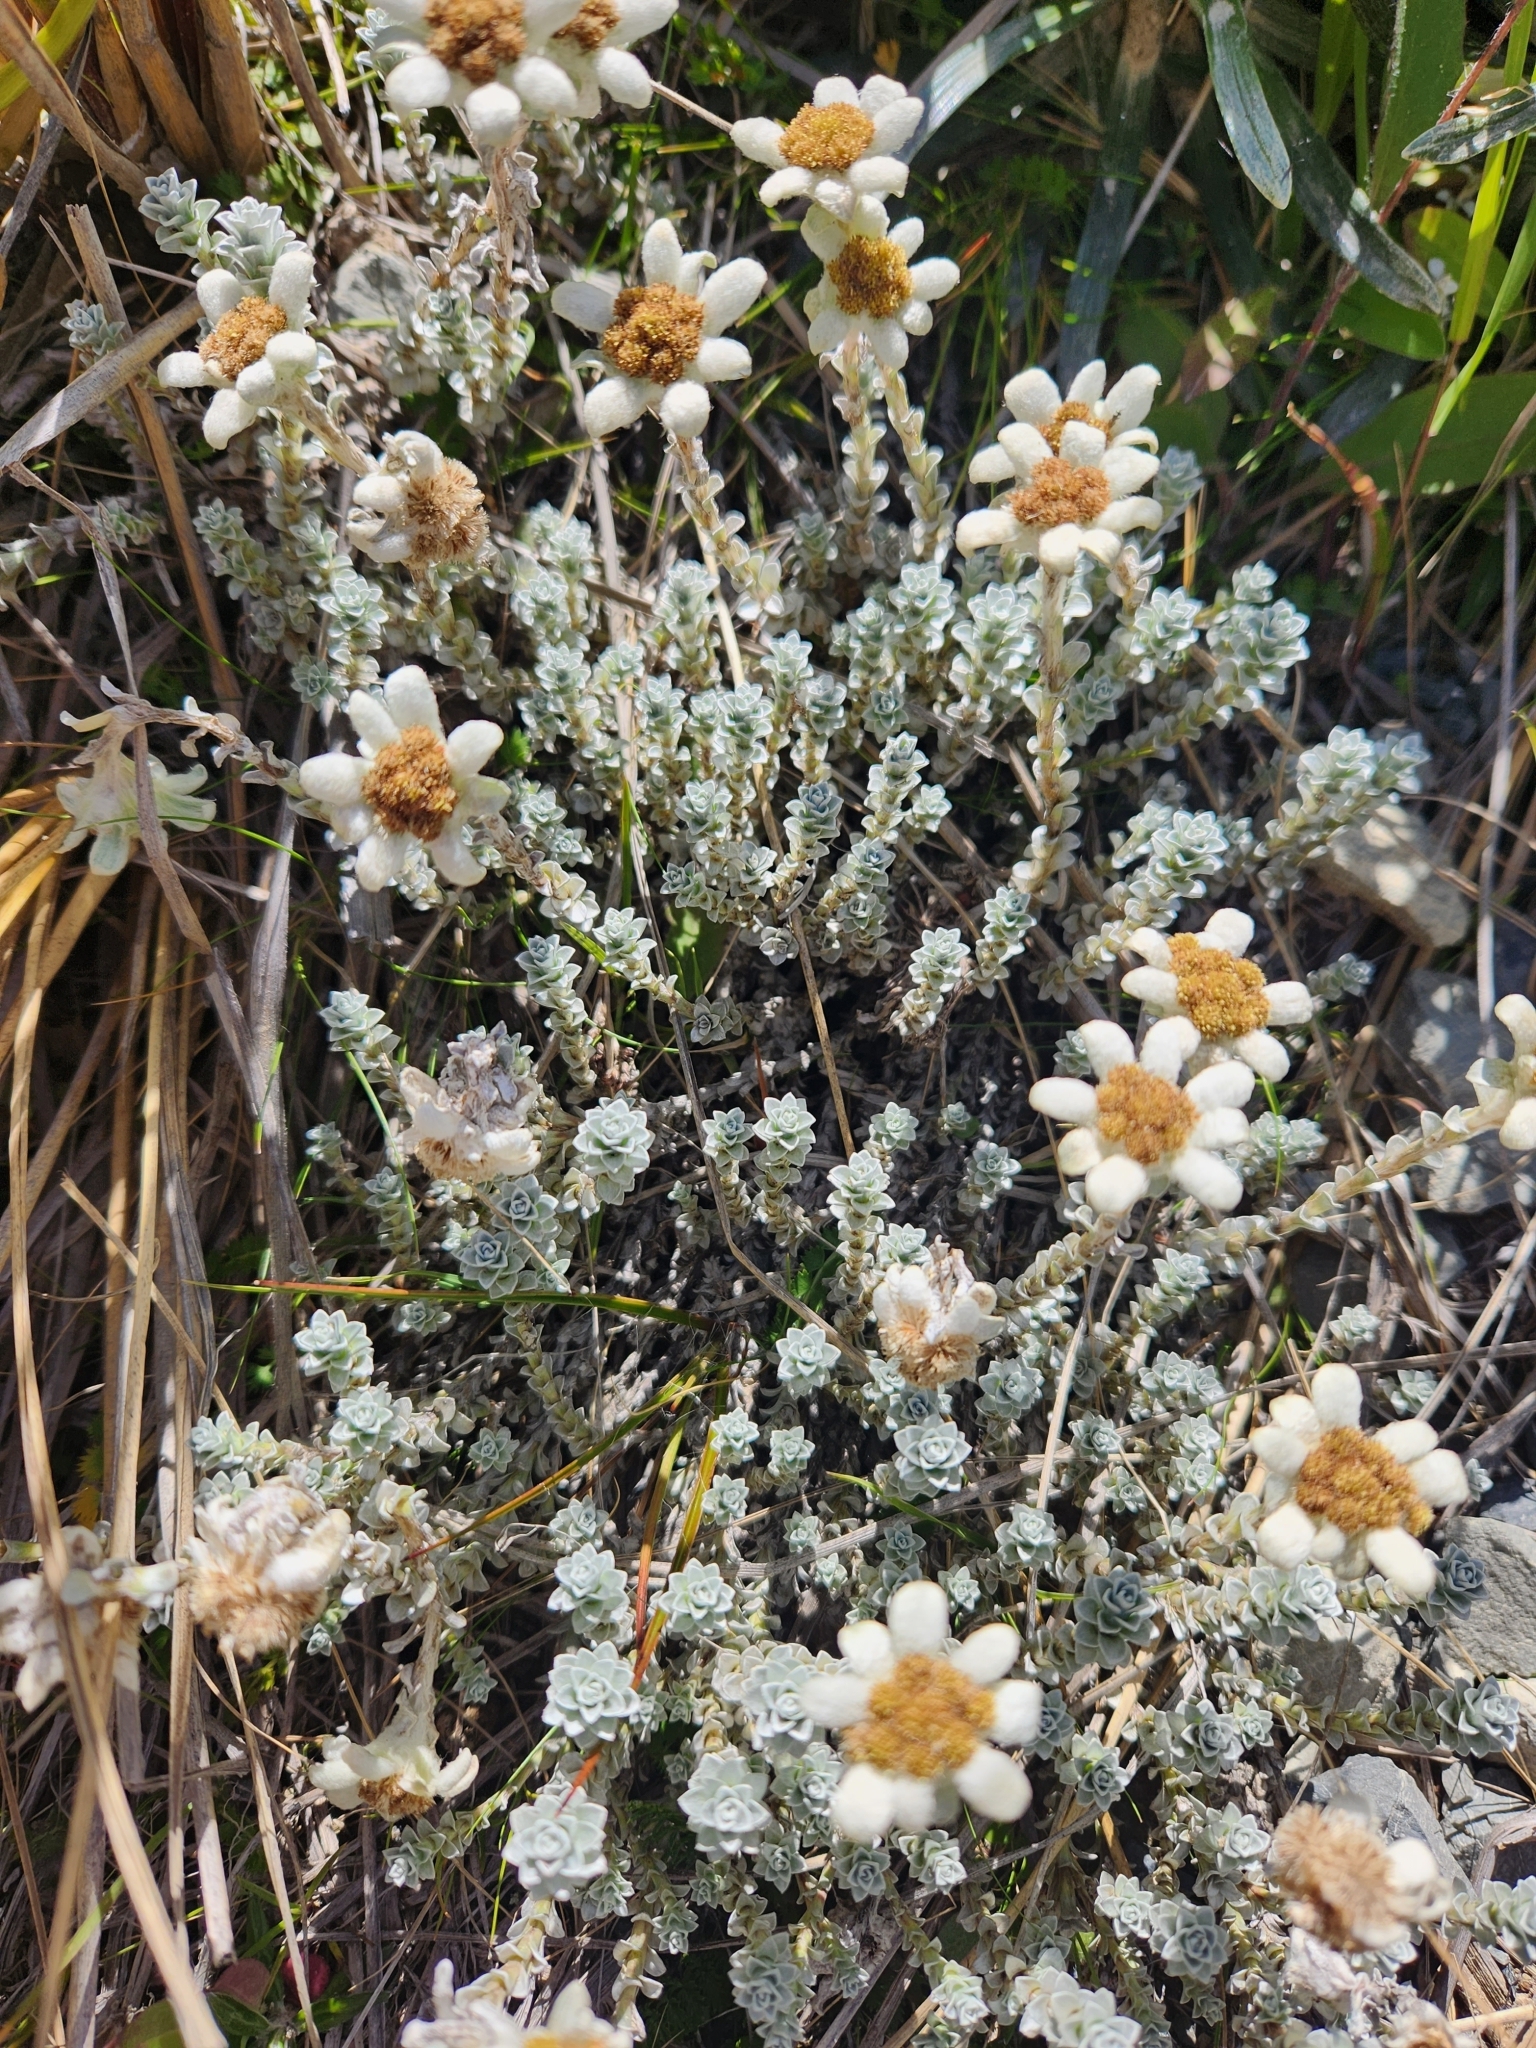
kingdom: Plantae
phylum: Tracheophyta
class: Magnoliopsida
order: Asterales
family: Asteraceae
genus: Leucogenes
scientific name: Leucogenes grandiceps
